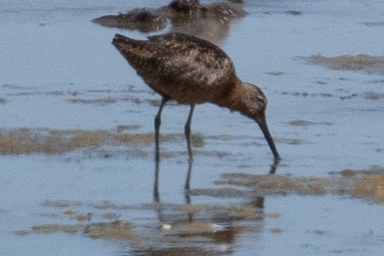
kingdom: Animalia
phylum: Chordata
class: Aves
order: Charadriiformes
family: Scolopacidae
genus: Limnodromus
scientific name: Limnodromus scolopaceus
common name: Long-billed dowitcher
